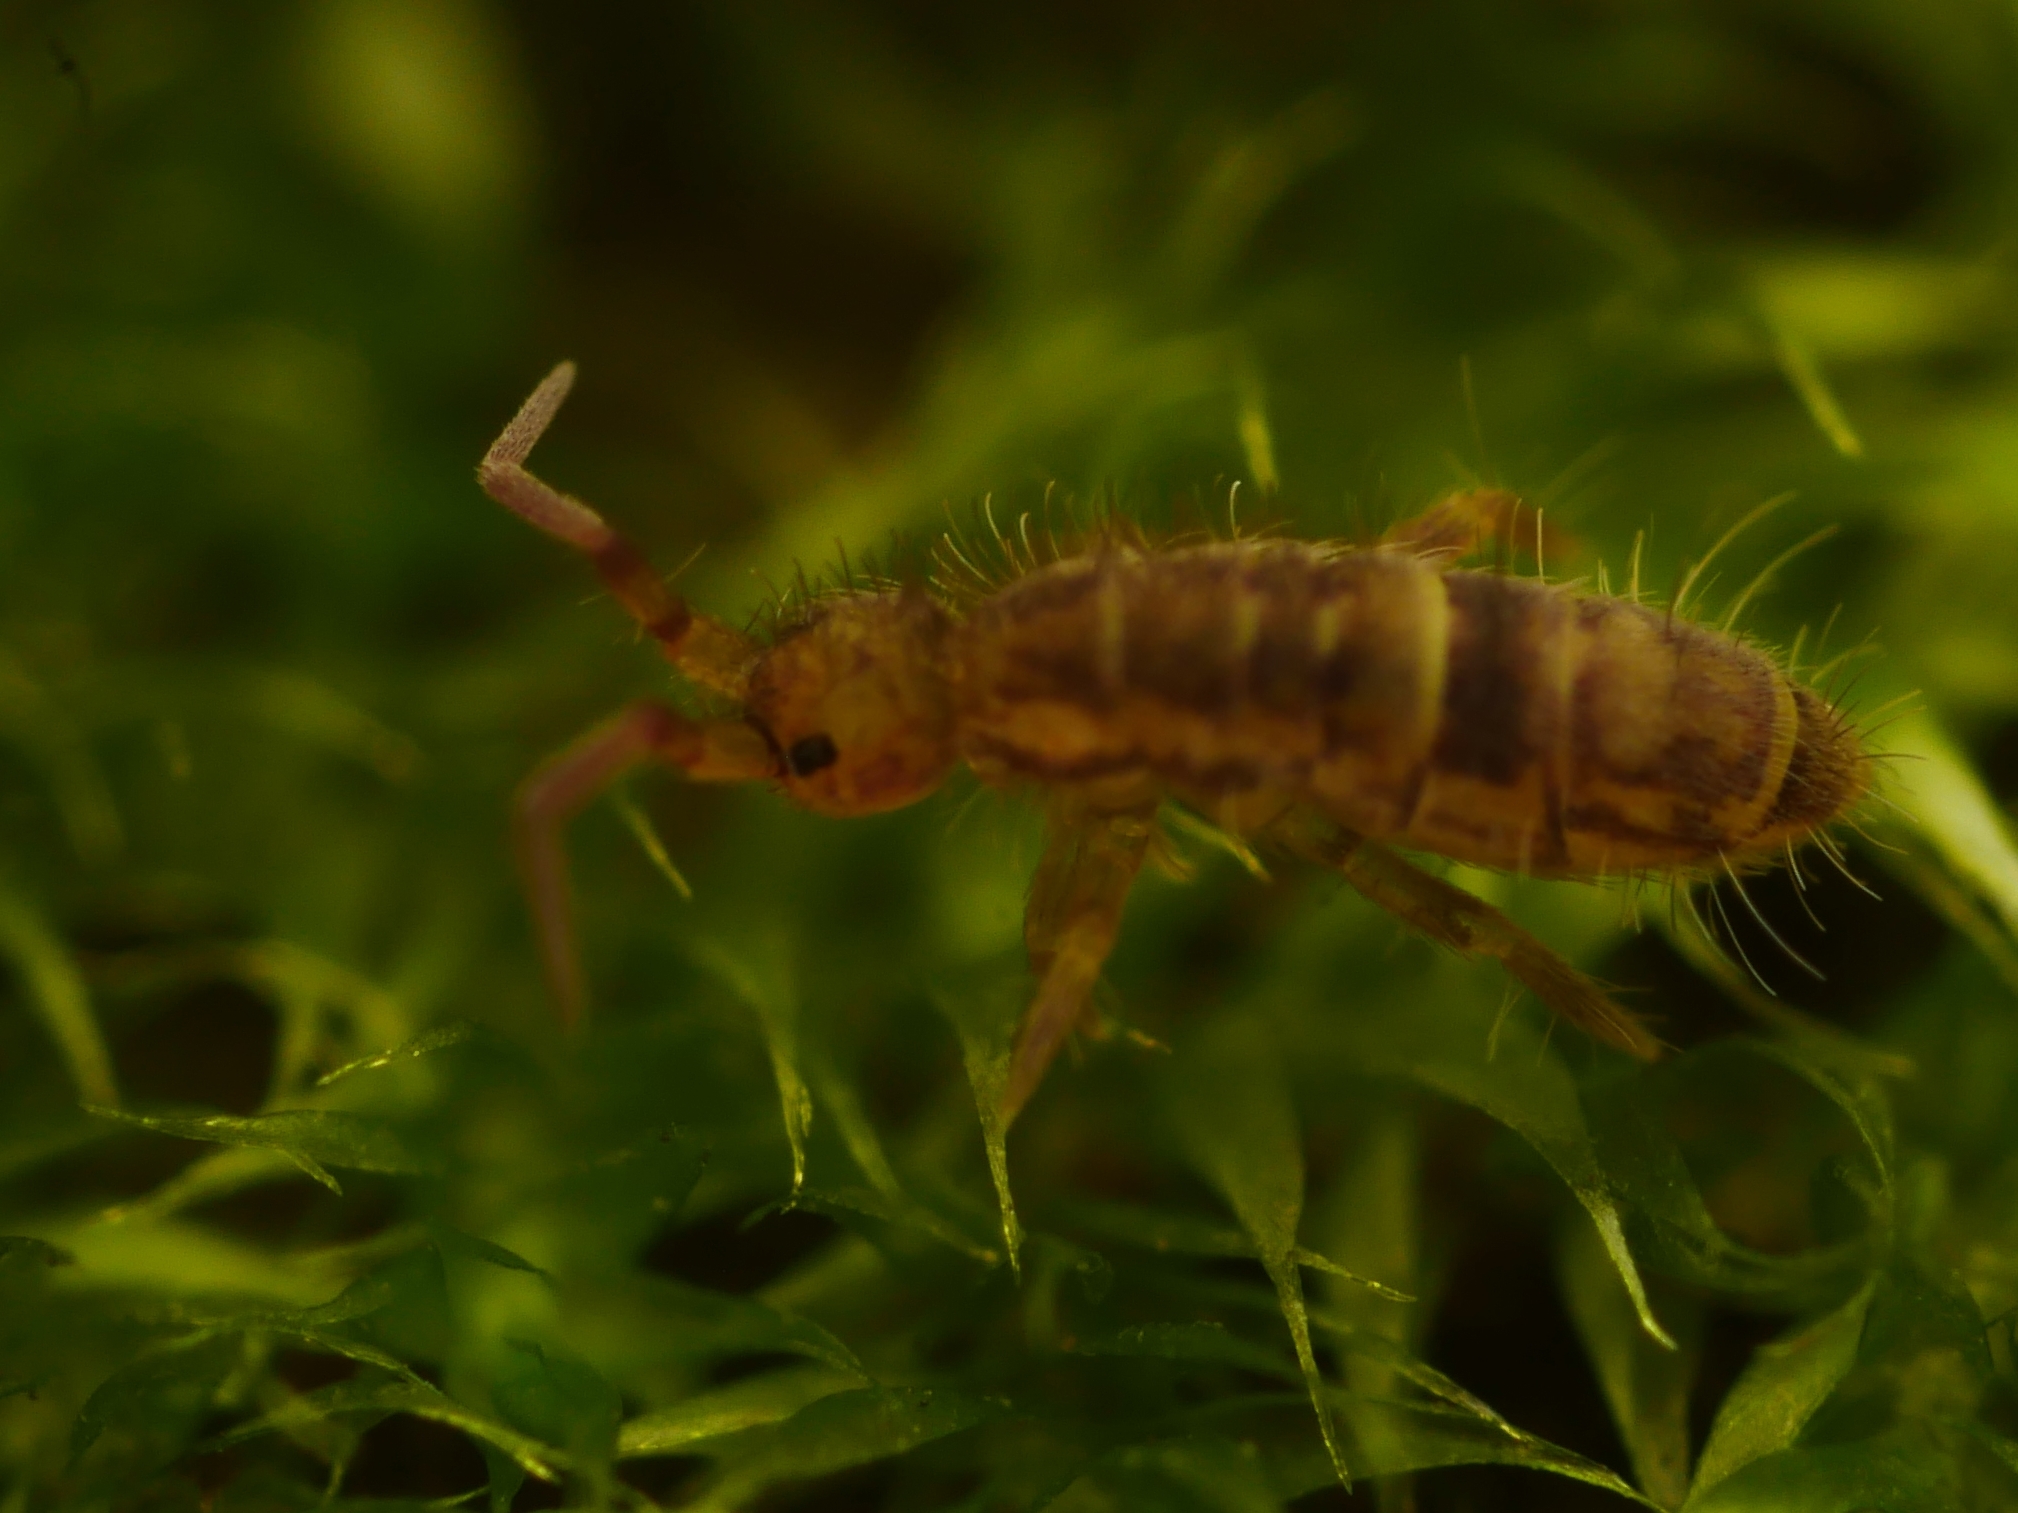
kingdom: Animalia
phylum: Arthropoda
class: Collembola
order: Entomobryomorpha
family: Orchesellidae
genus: Orchesella
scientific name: Orchesella cincta
